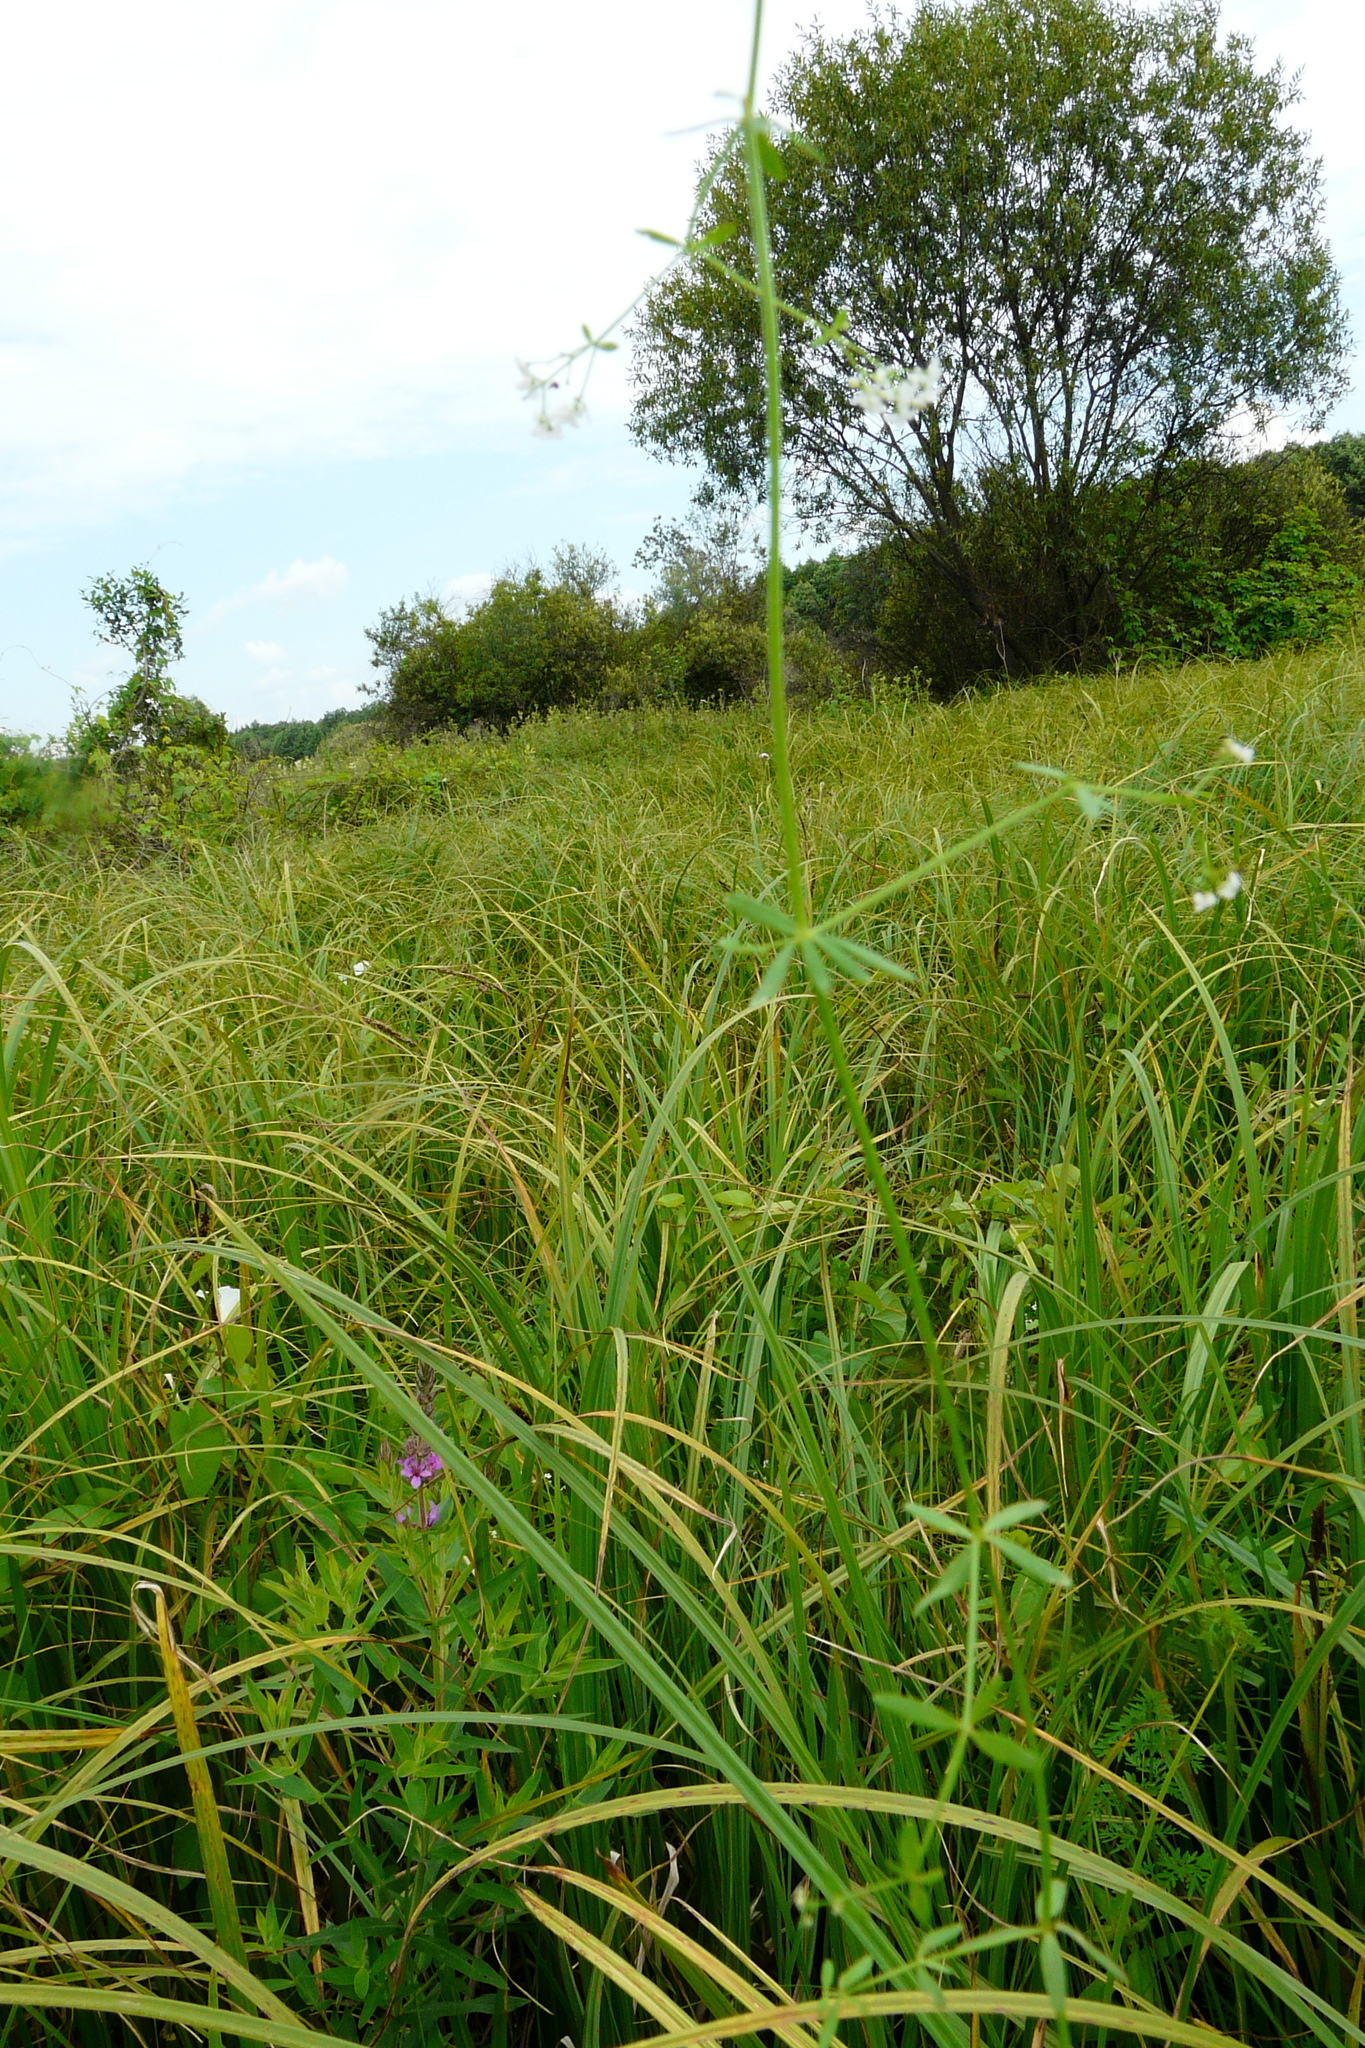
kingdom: Plantae
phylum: Tracheophyta
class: Magnoliopsida
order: Gentianales
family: Rubiaceae
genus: Galium
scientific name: Galium palustre
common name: Common marsh-bedstraw
